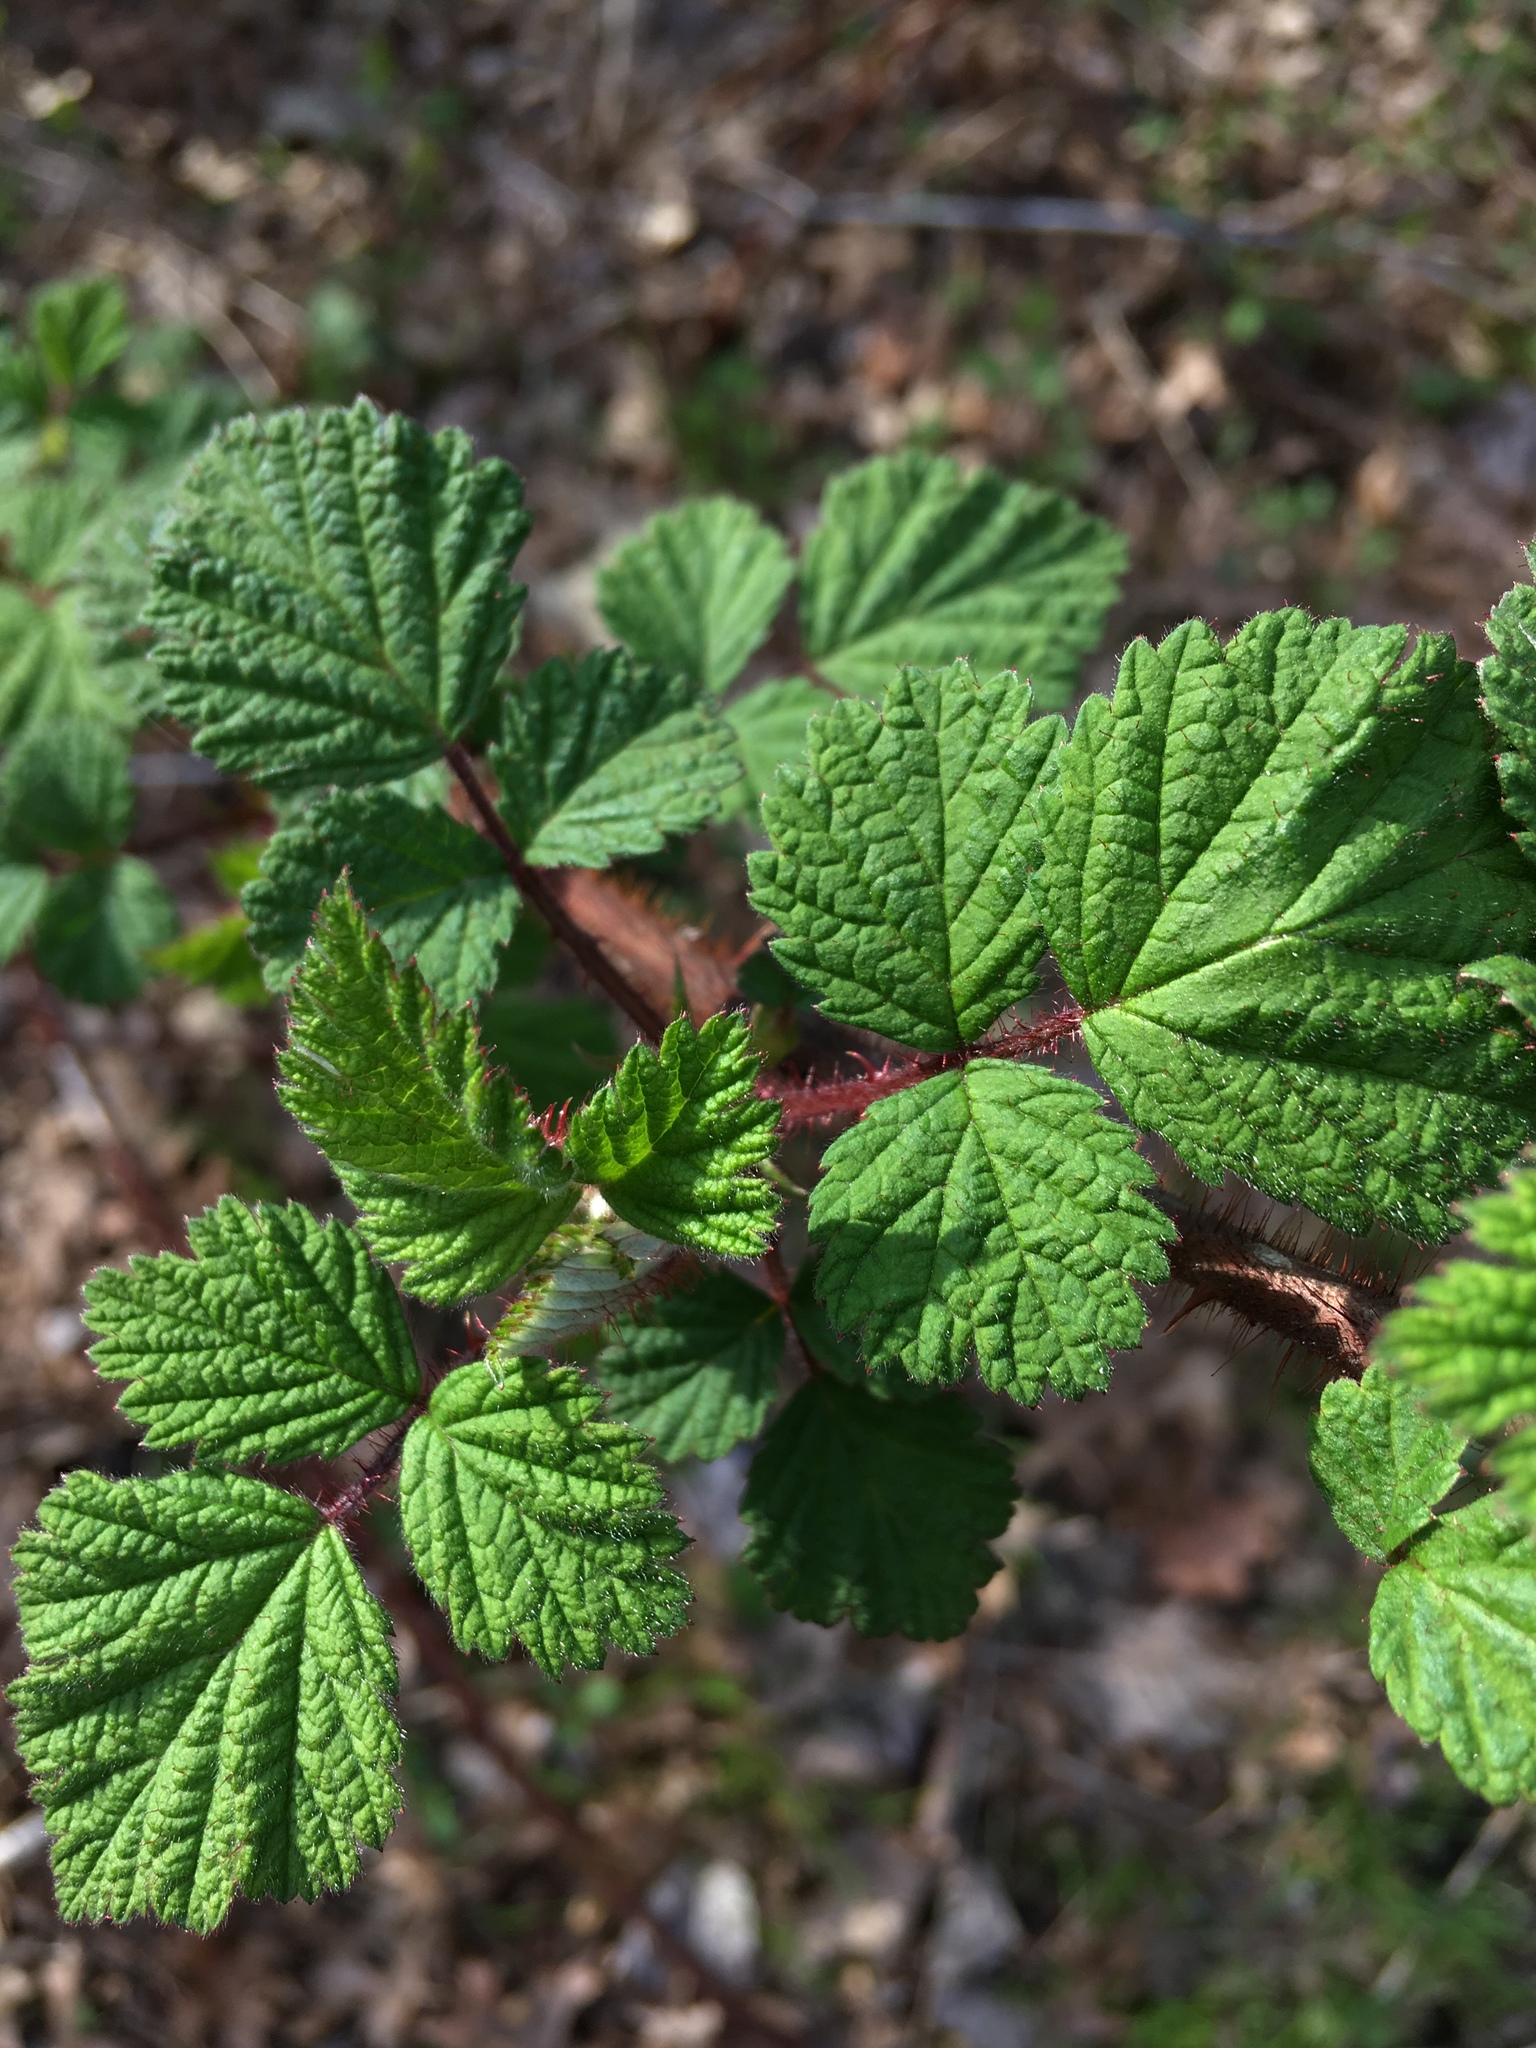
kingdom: Plantae
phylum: Tracheophyta
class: Magnoliopsida
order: Rosales
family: Rosaceae
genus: Rubus
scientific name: Rubus phoenicolasius
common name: Japanese wineberry
